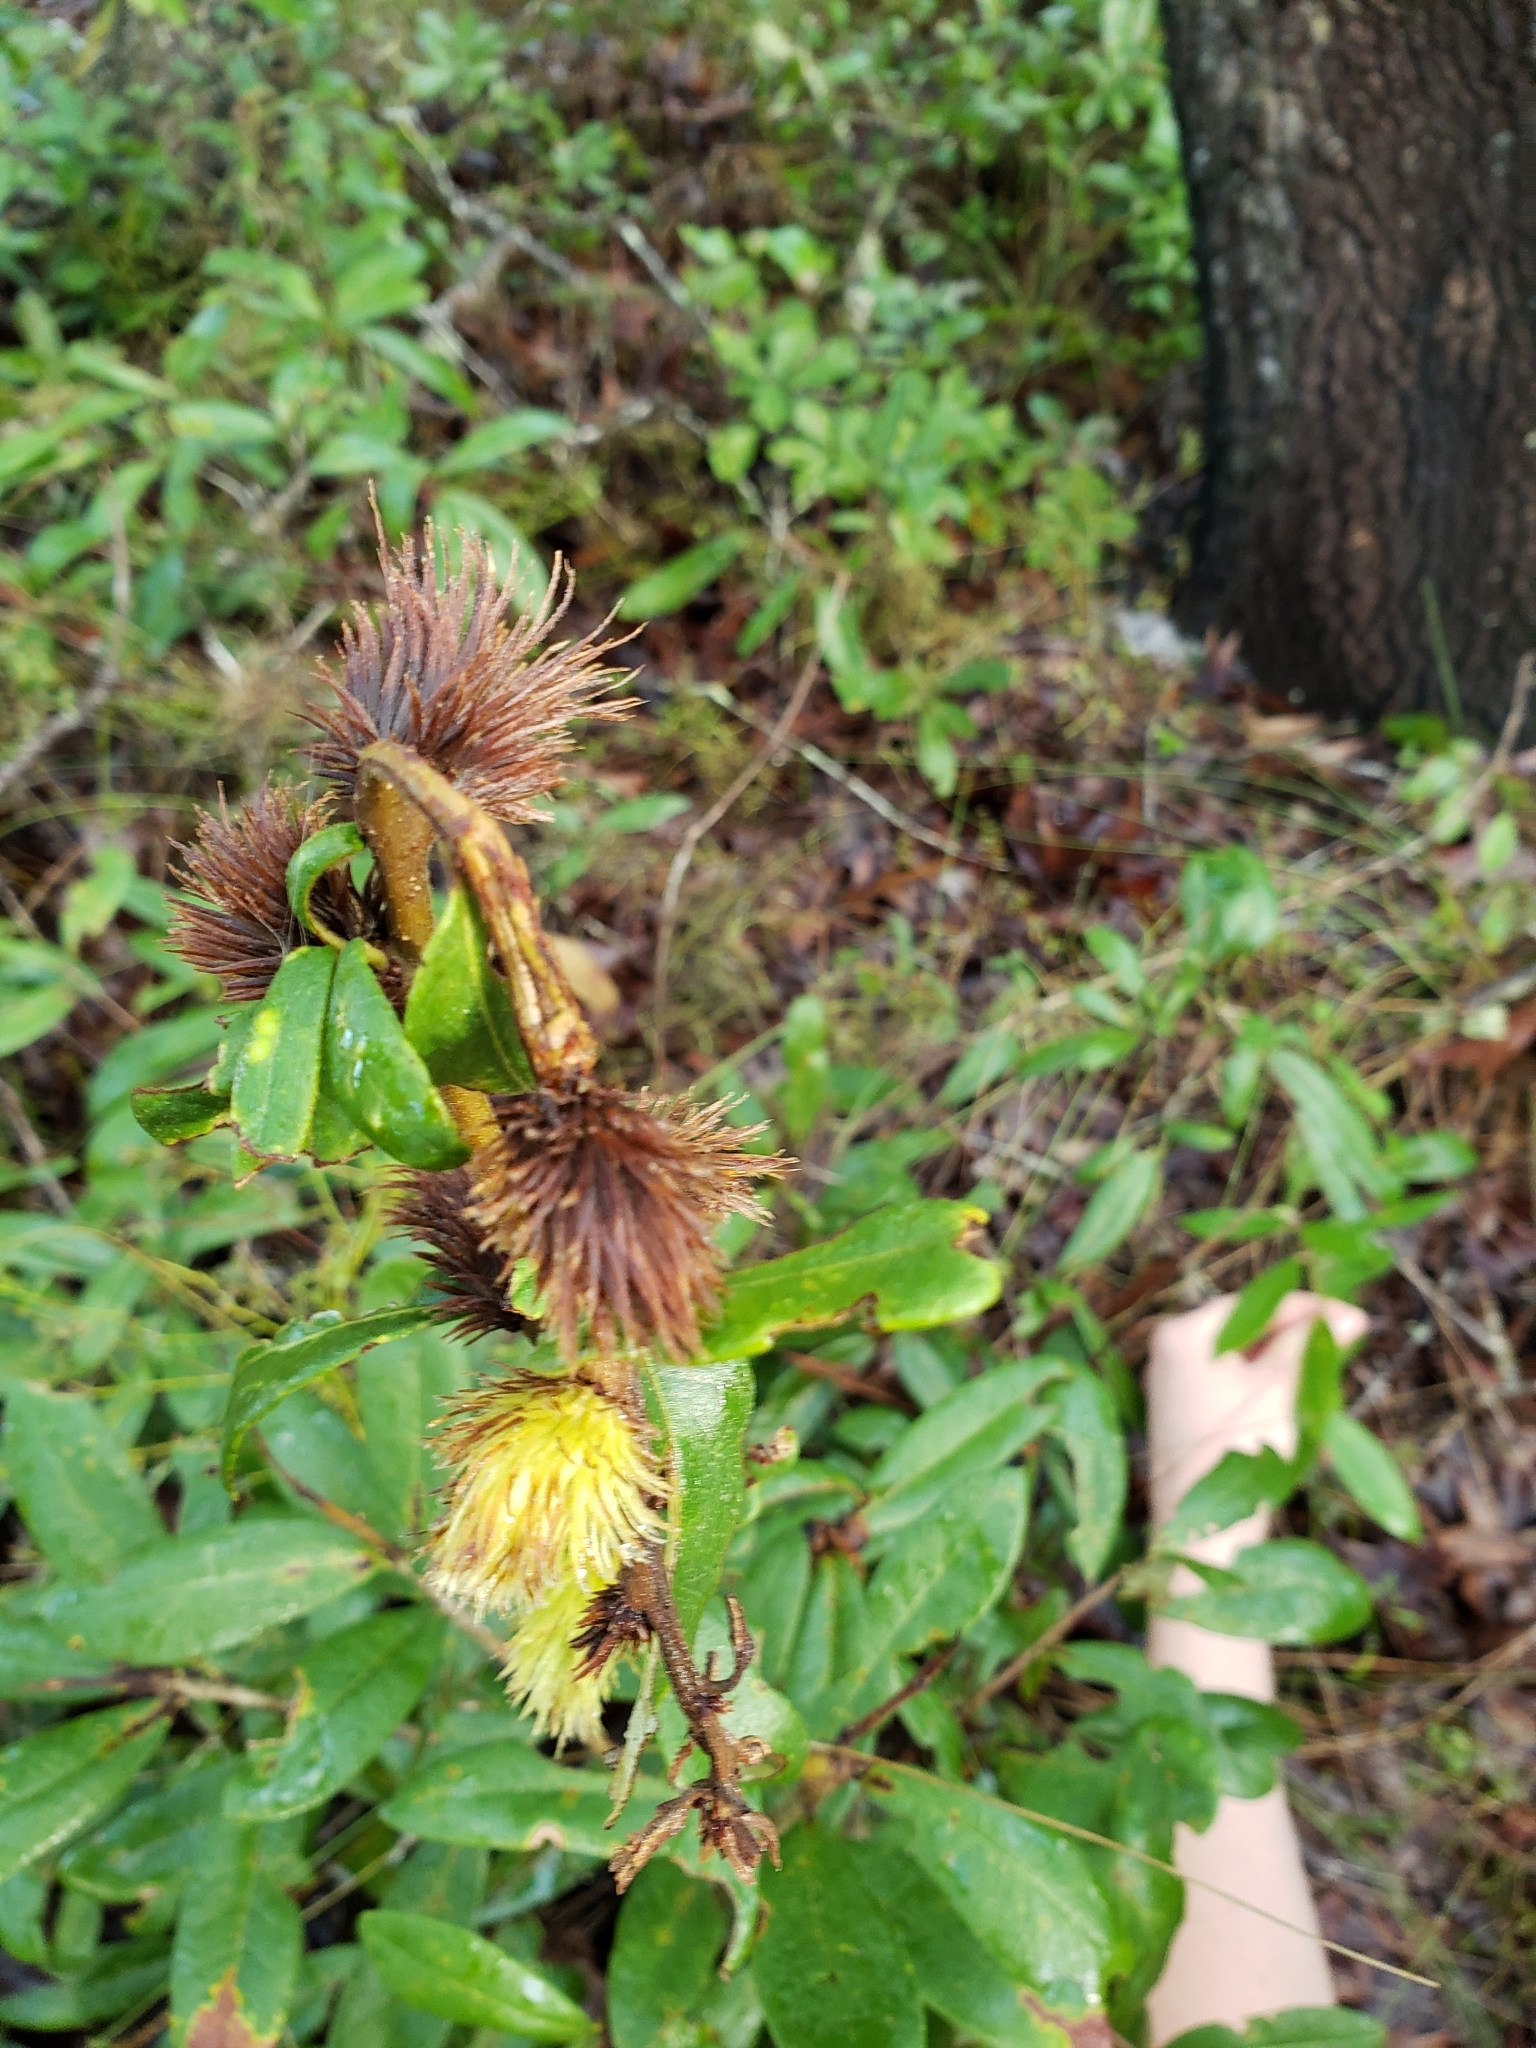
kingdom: Animalia
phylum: Arthropoda
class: Insecta
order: Hymenoptera
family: Cynipidae
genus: Andricus
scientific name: Andricus quercusfoliatus
